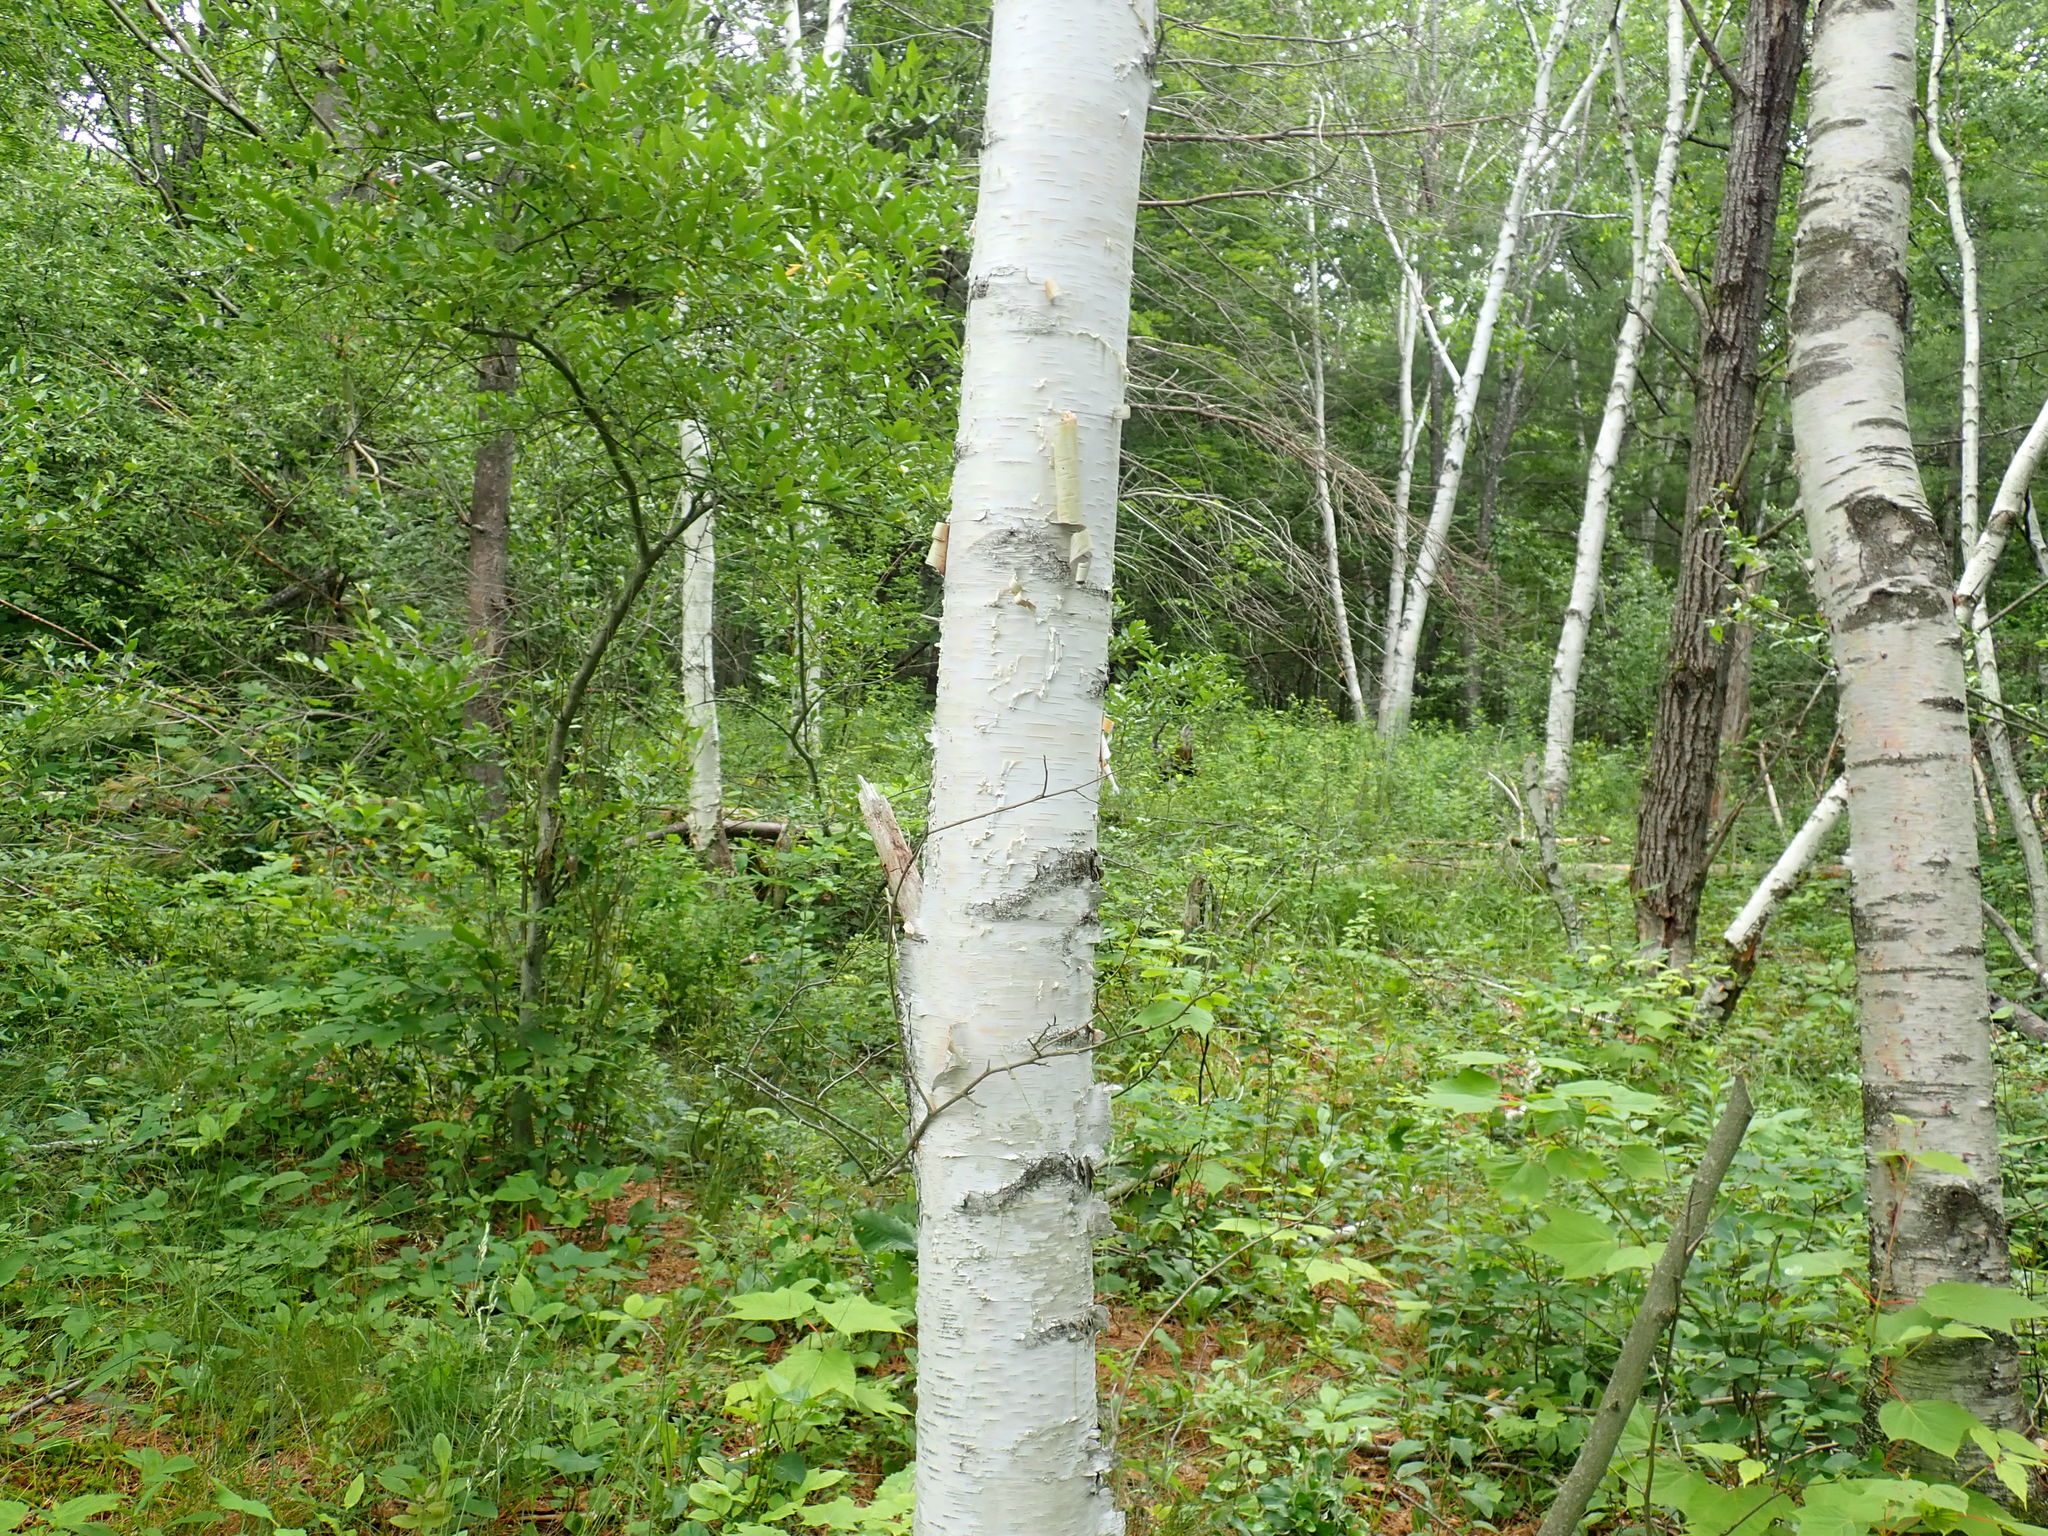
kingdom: Plantae
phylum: Tracheophyta
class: Magnoliopsida
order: Fagales
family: Betulaceae
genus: Betula
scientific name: Betula papyrifera
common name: Paper birch
